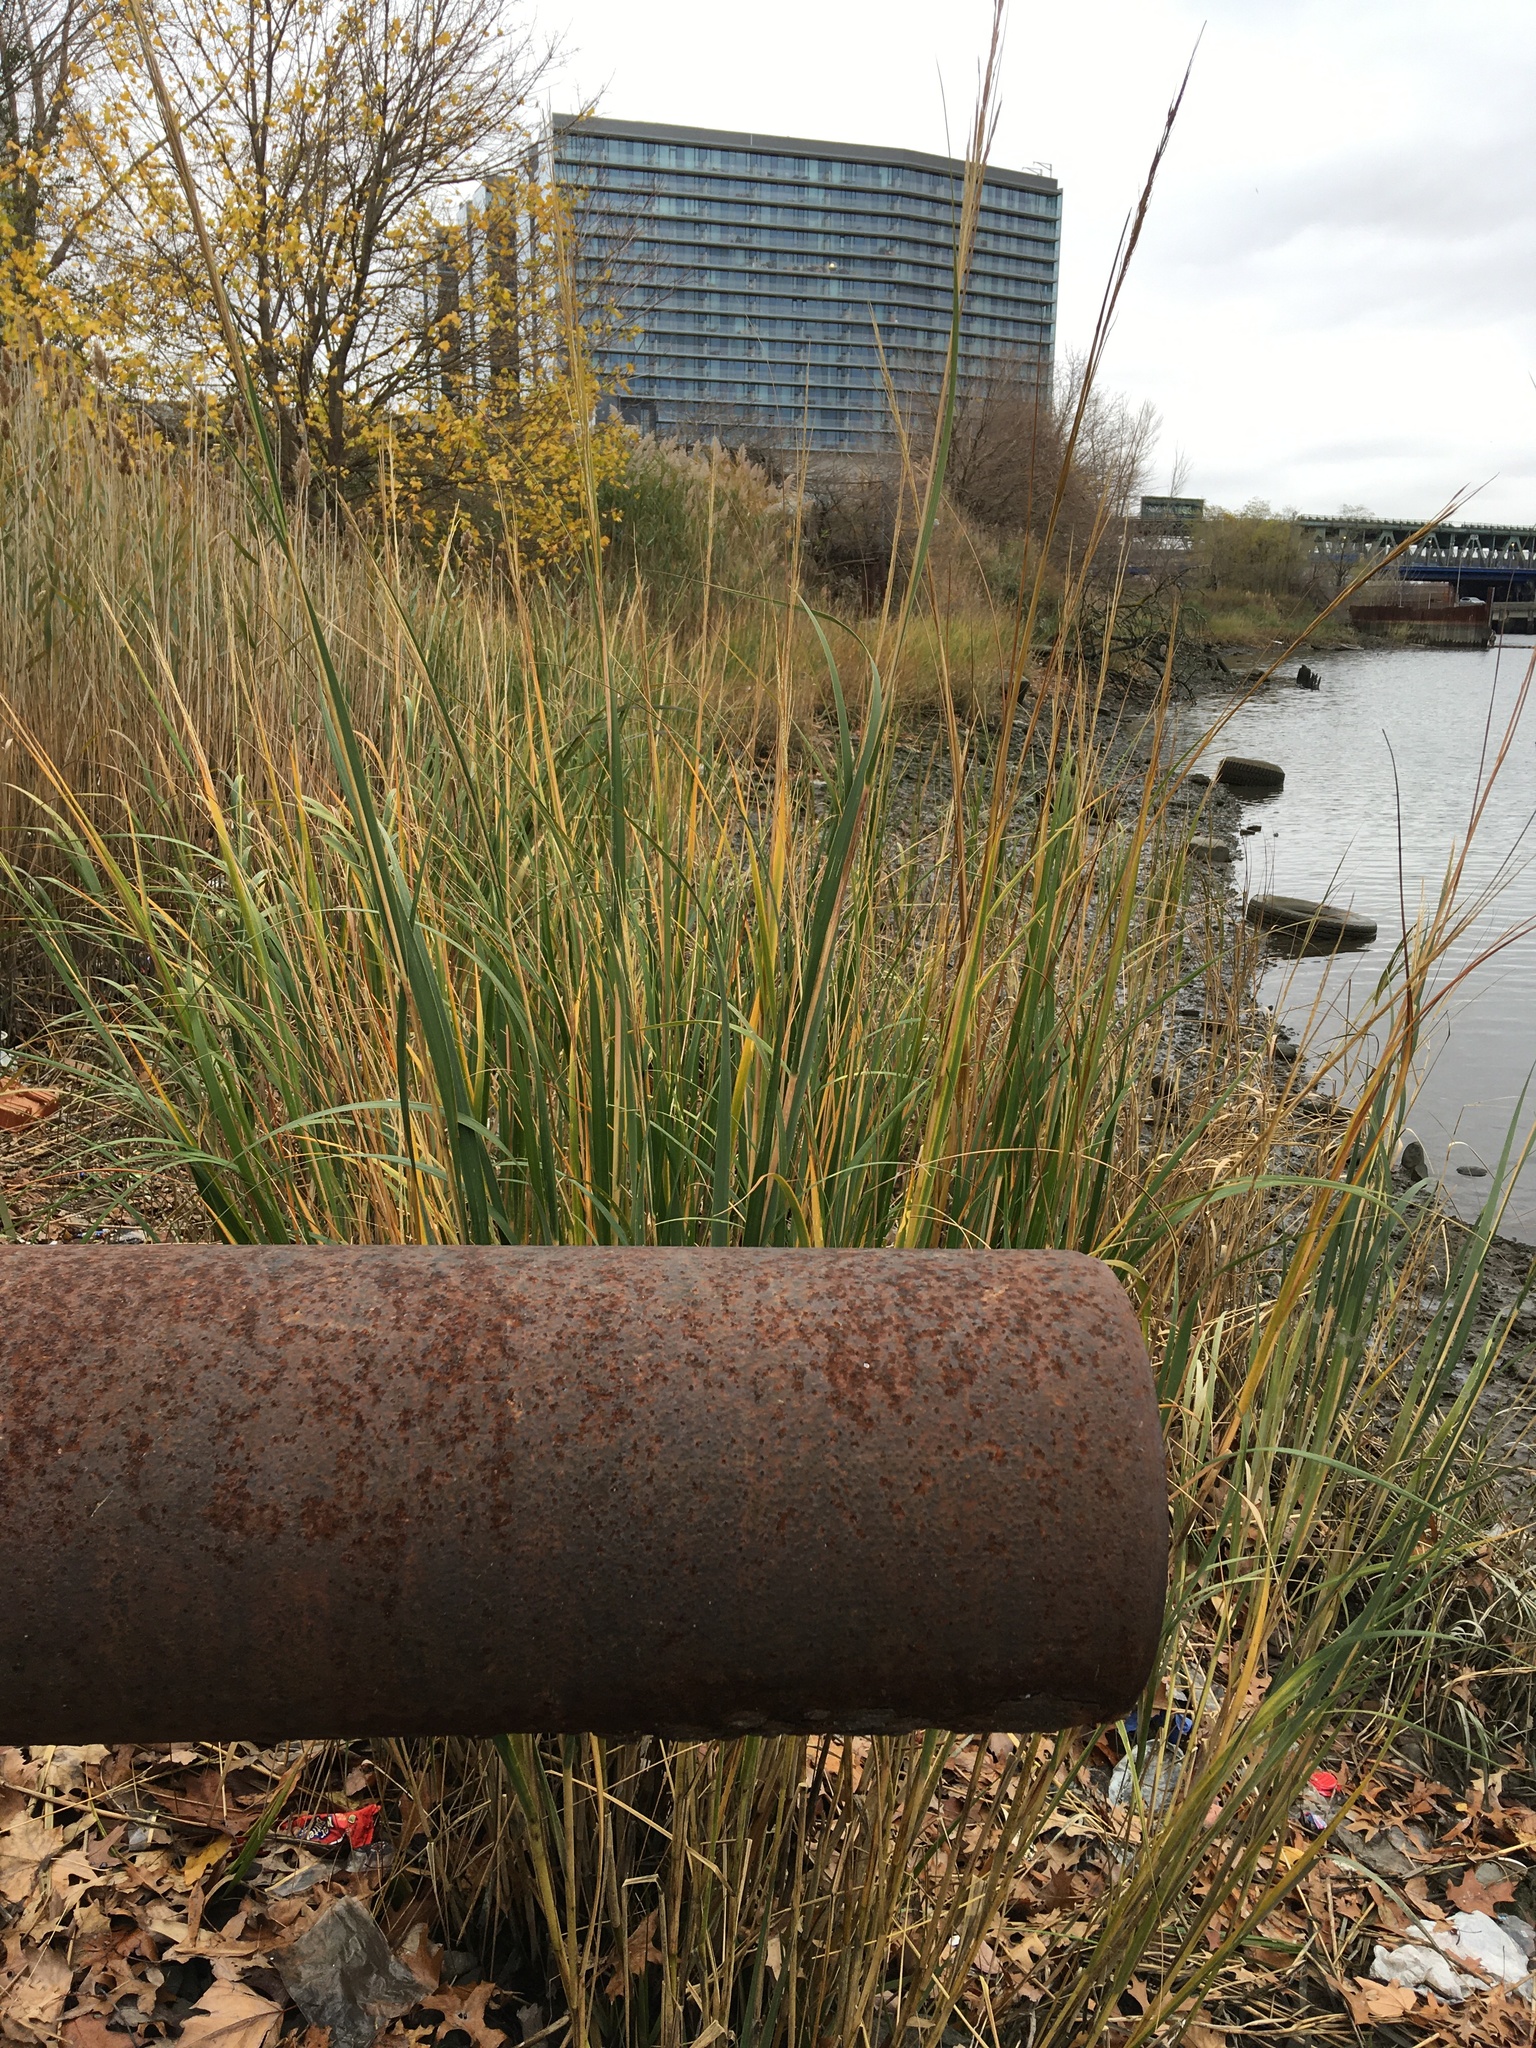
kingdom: Plantae
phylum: Tracheophyta
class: Liliopsida
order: Poales
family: Poaceae
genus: Sporobolus
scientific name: Sporobolus alterniflorus
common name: Atlantic cordgrass
